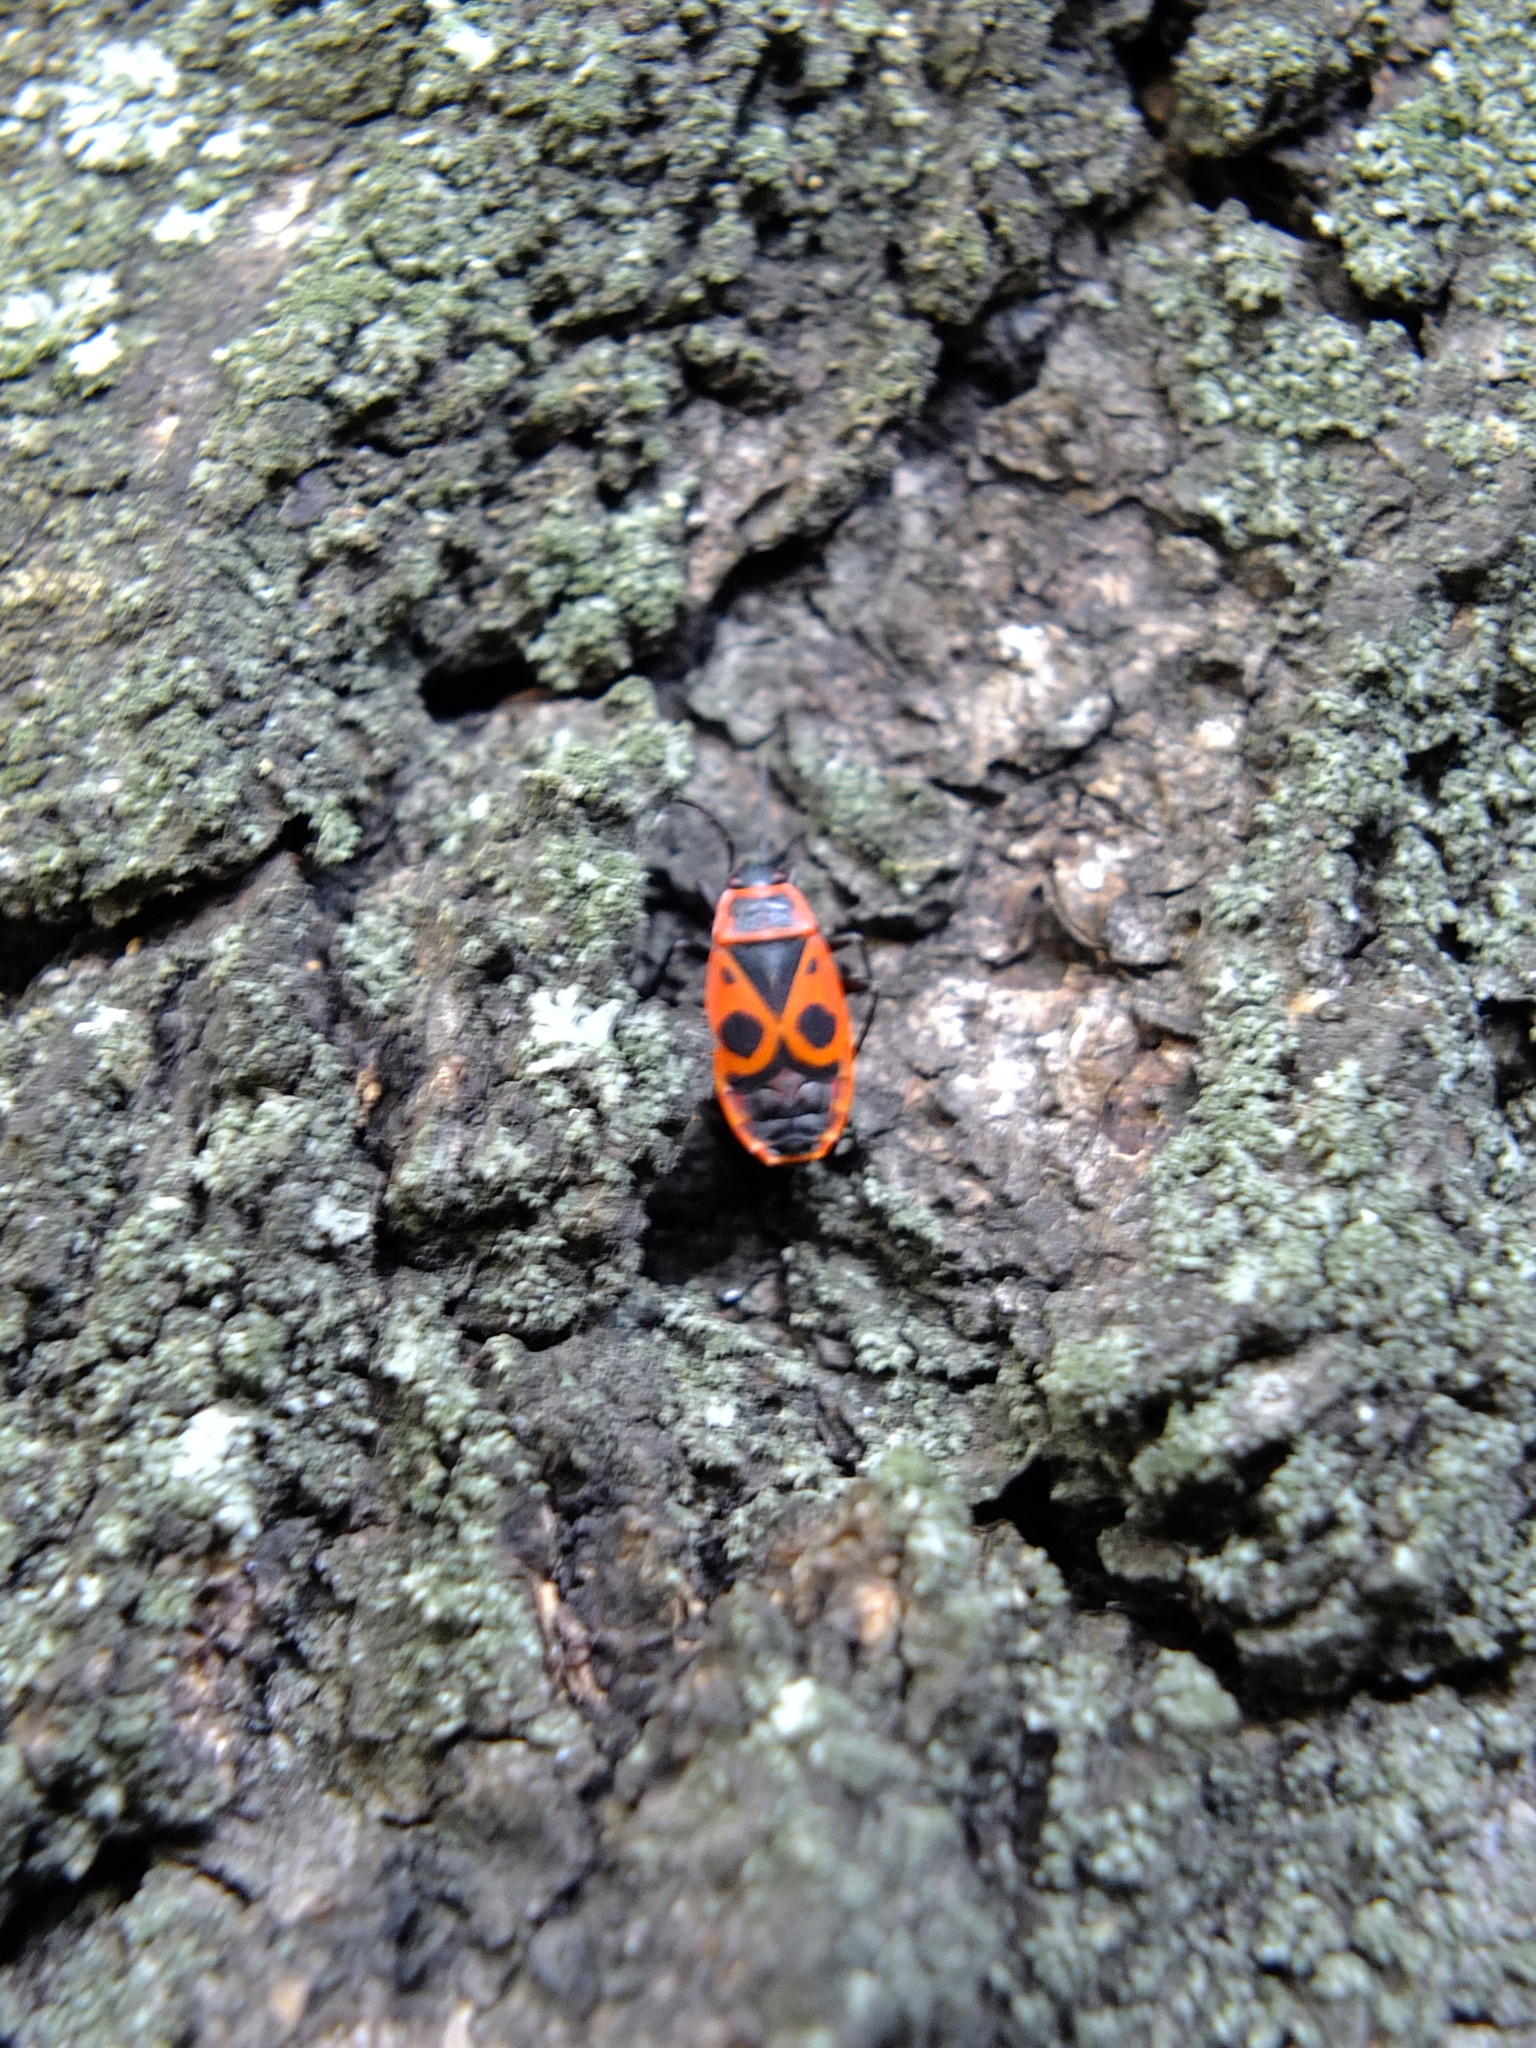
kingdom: Animalia
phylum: Arthropoda
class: Insecta
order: Hemiptera
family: Pyrrhocoridae
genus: Pyrrhocoris
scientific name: Pyrrhocoris apterus
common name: Firebug
